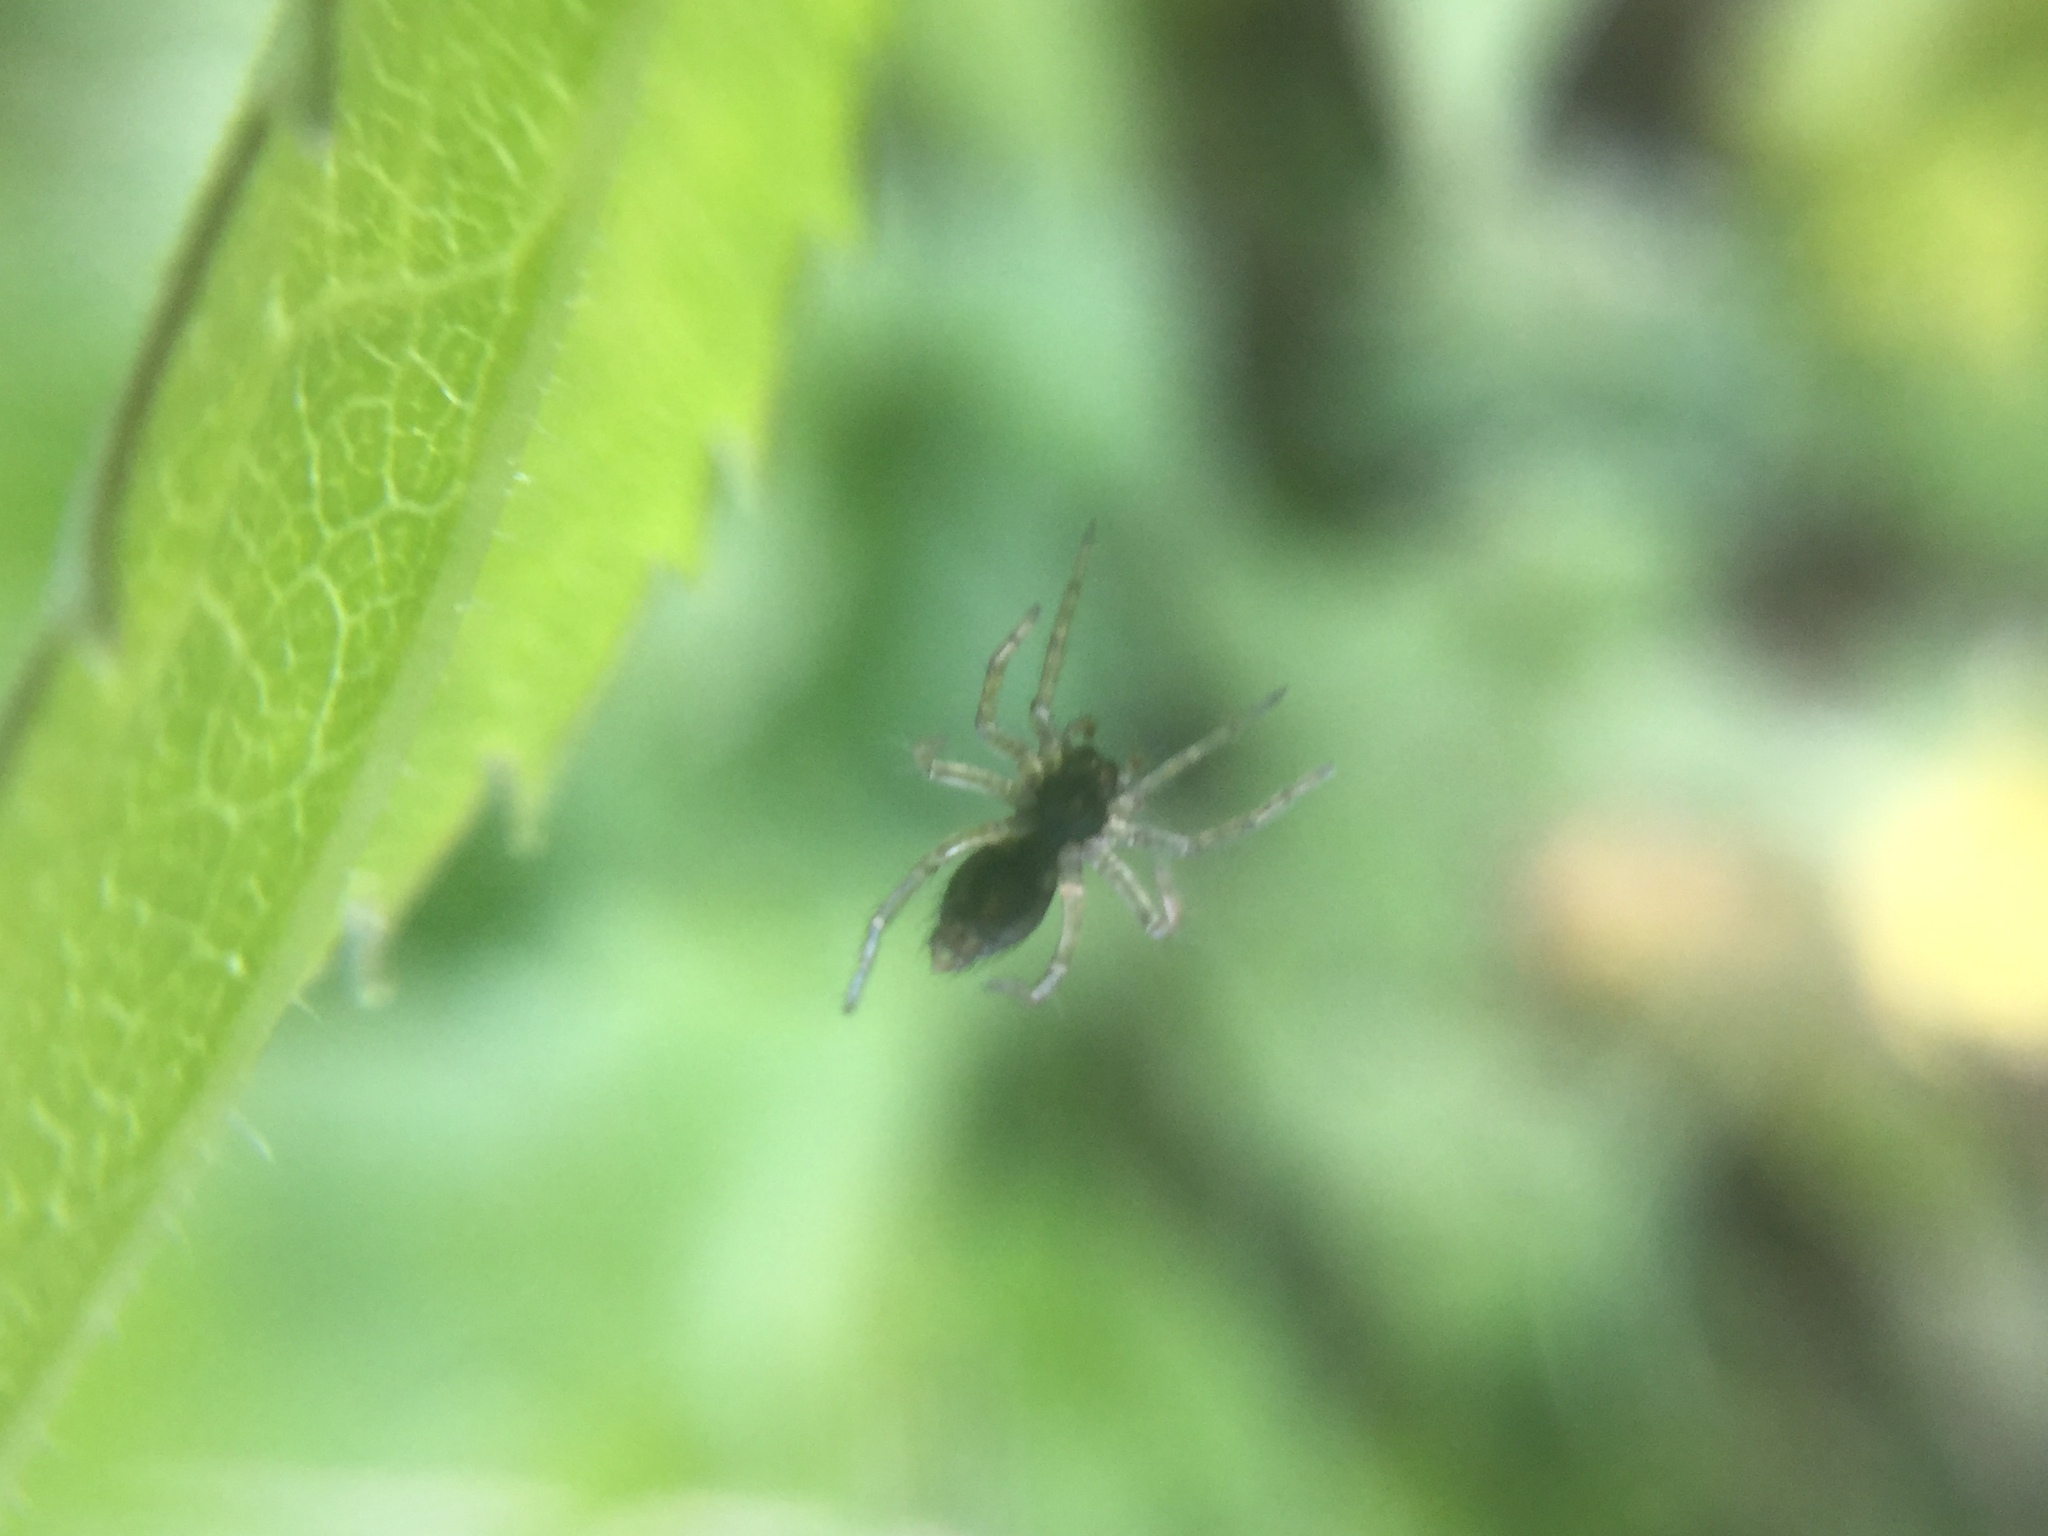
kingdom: Animalia
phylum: Arthropoda
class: Arachnida
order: Araneae
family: Agelenidae
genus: Agelenopsis
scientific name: Agelenopsis
